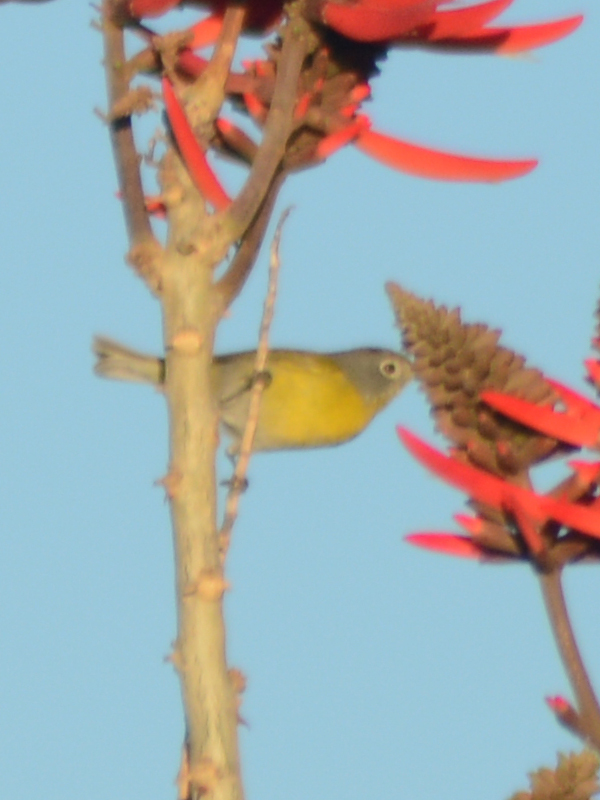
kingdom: Animalia
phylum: Chordata
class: Aves
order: Passeriformes
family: Parulidae
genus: Leiothlypis
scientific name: Leiothlypis ruficapilla
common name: Nashville warbler
